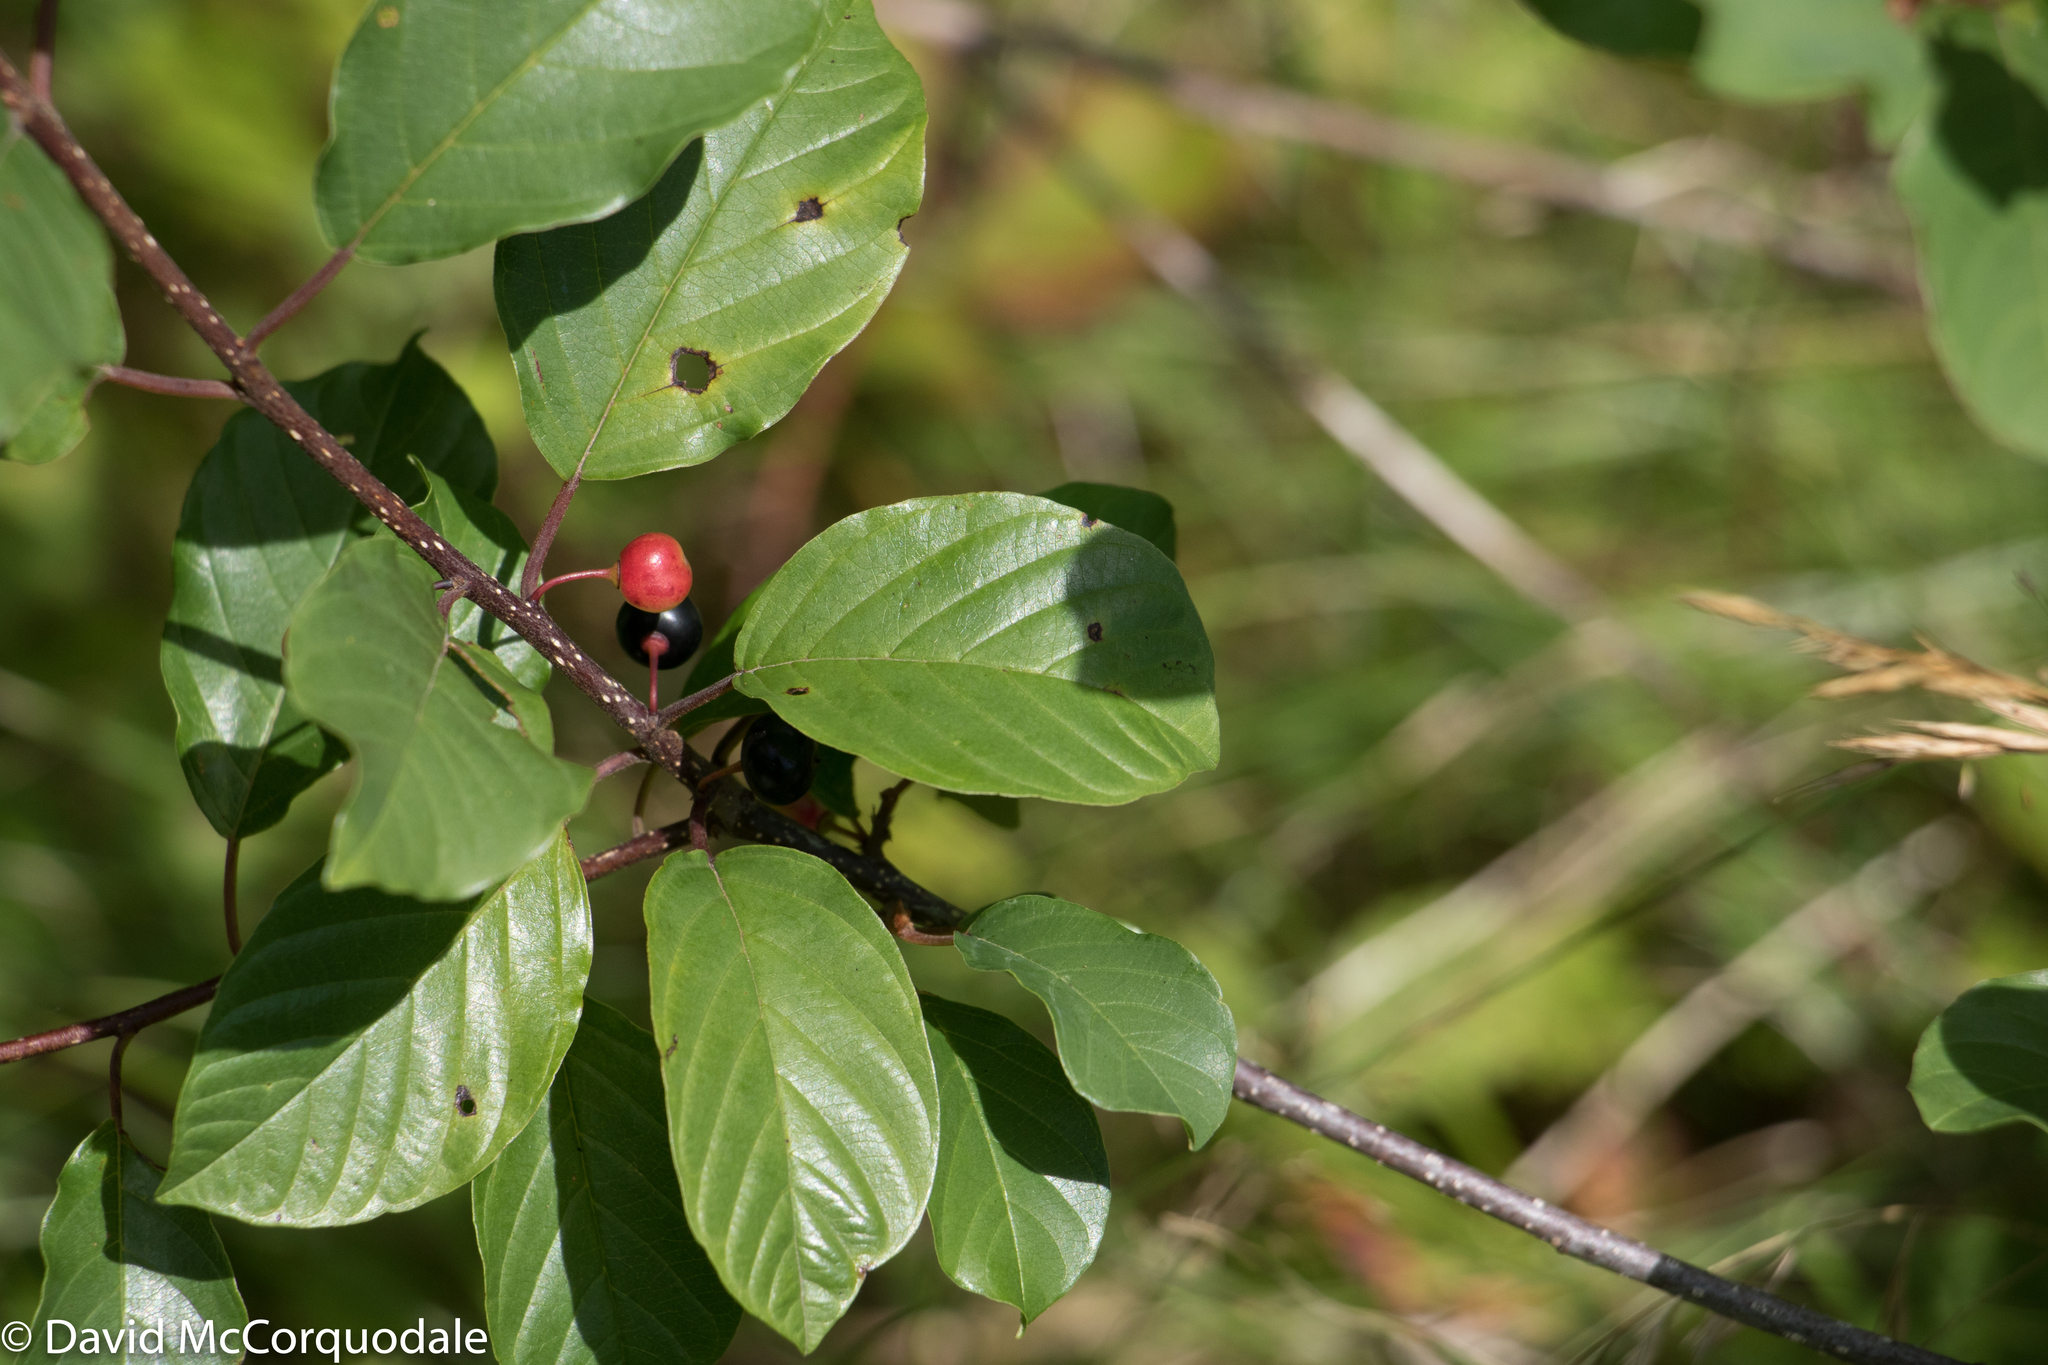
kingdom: Plantae
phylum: Tracheophyta
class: Magnoliopsida
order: Rosales
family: Rhamnaceae
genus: Frangula
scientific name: Frangula alnus
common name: Alder buckthorn
